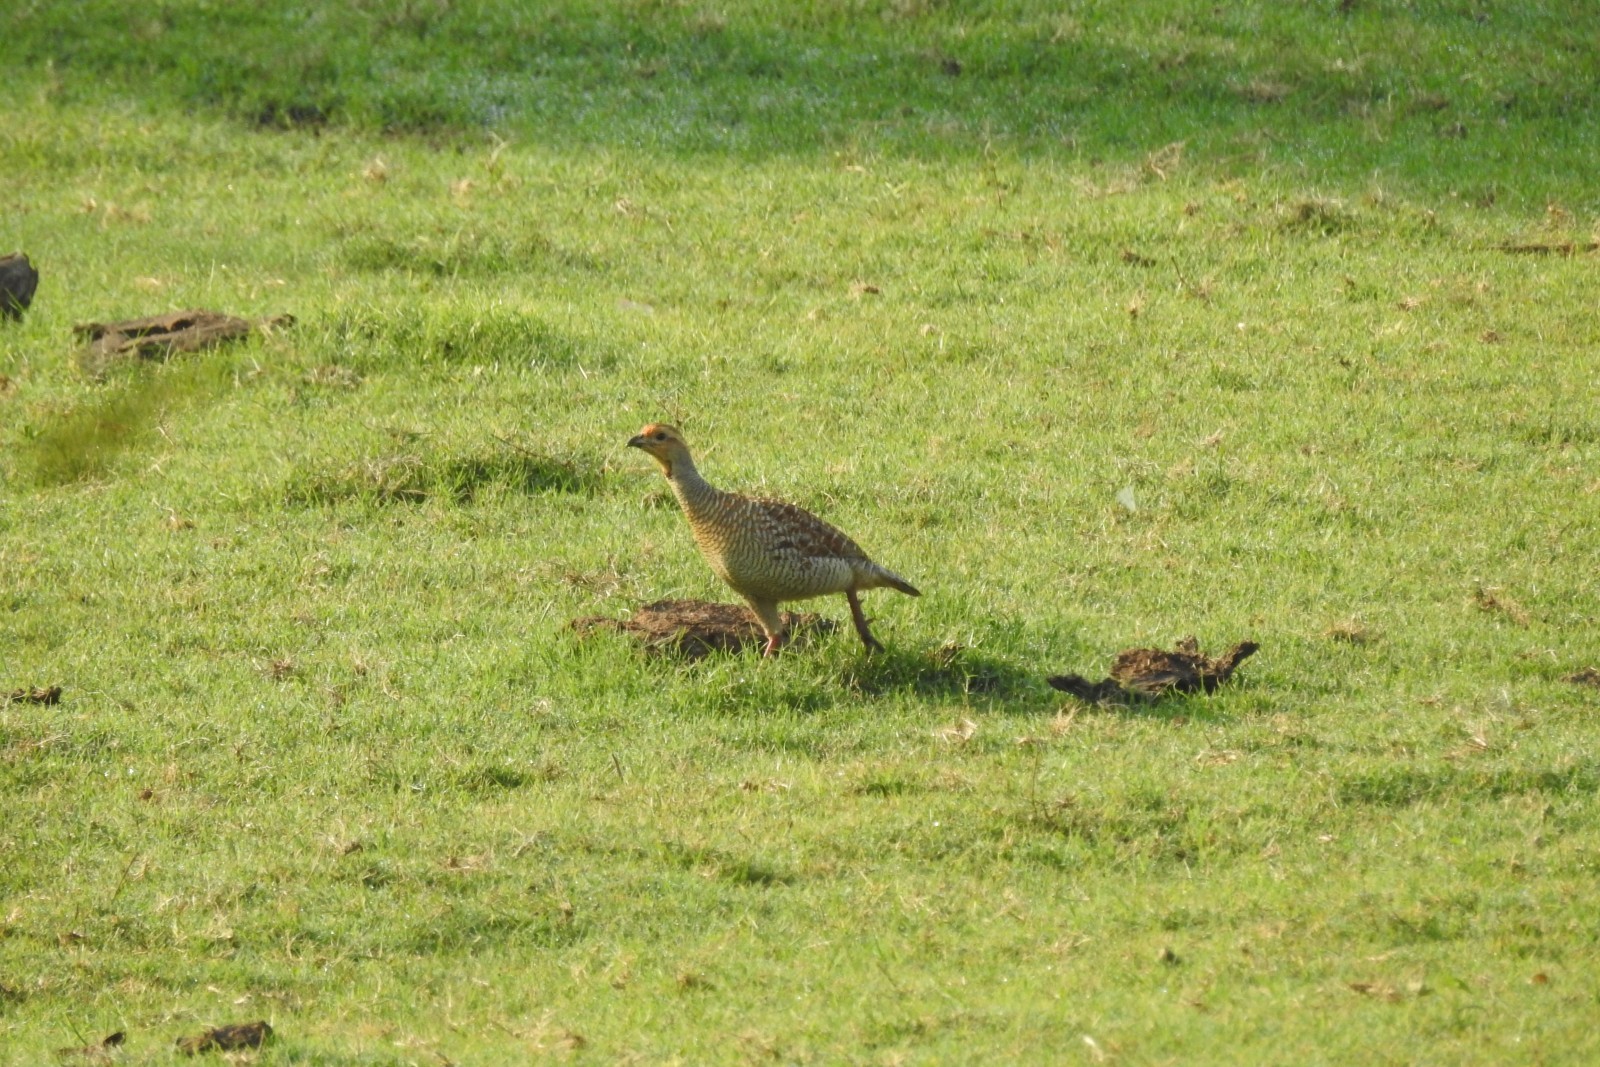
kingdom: Animalia
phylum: Chordata
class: Aves
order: Galliformes
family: Phasianidae
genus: Ortygornis
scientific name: Ortygornis pondicerianus
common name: Grey francolin
